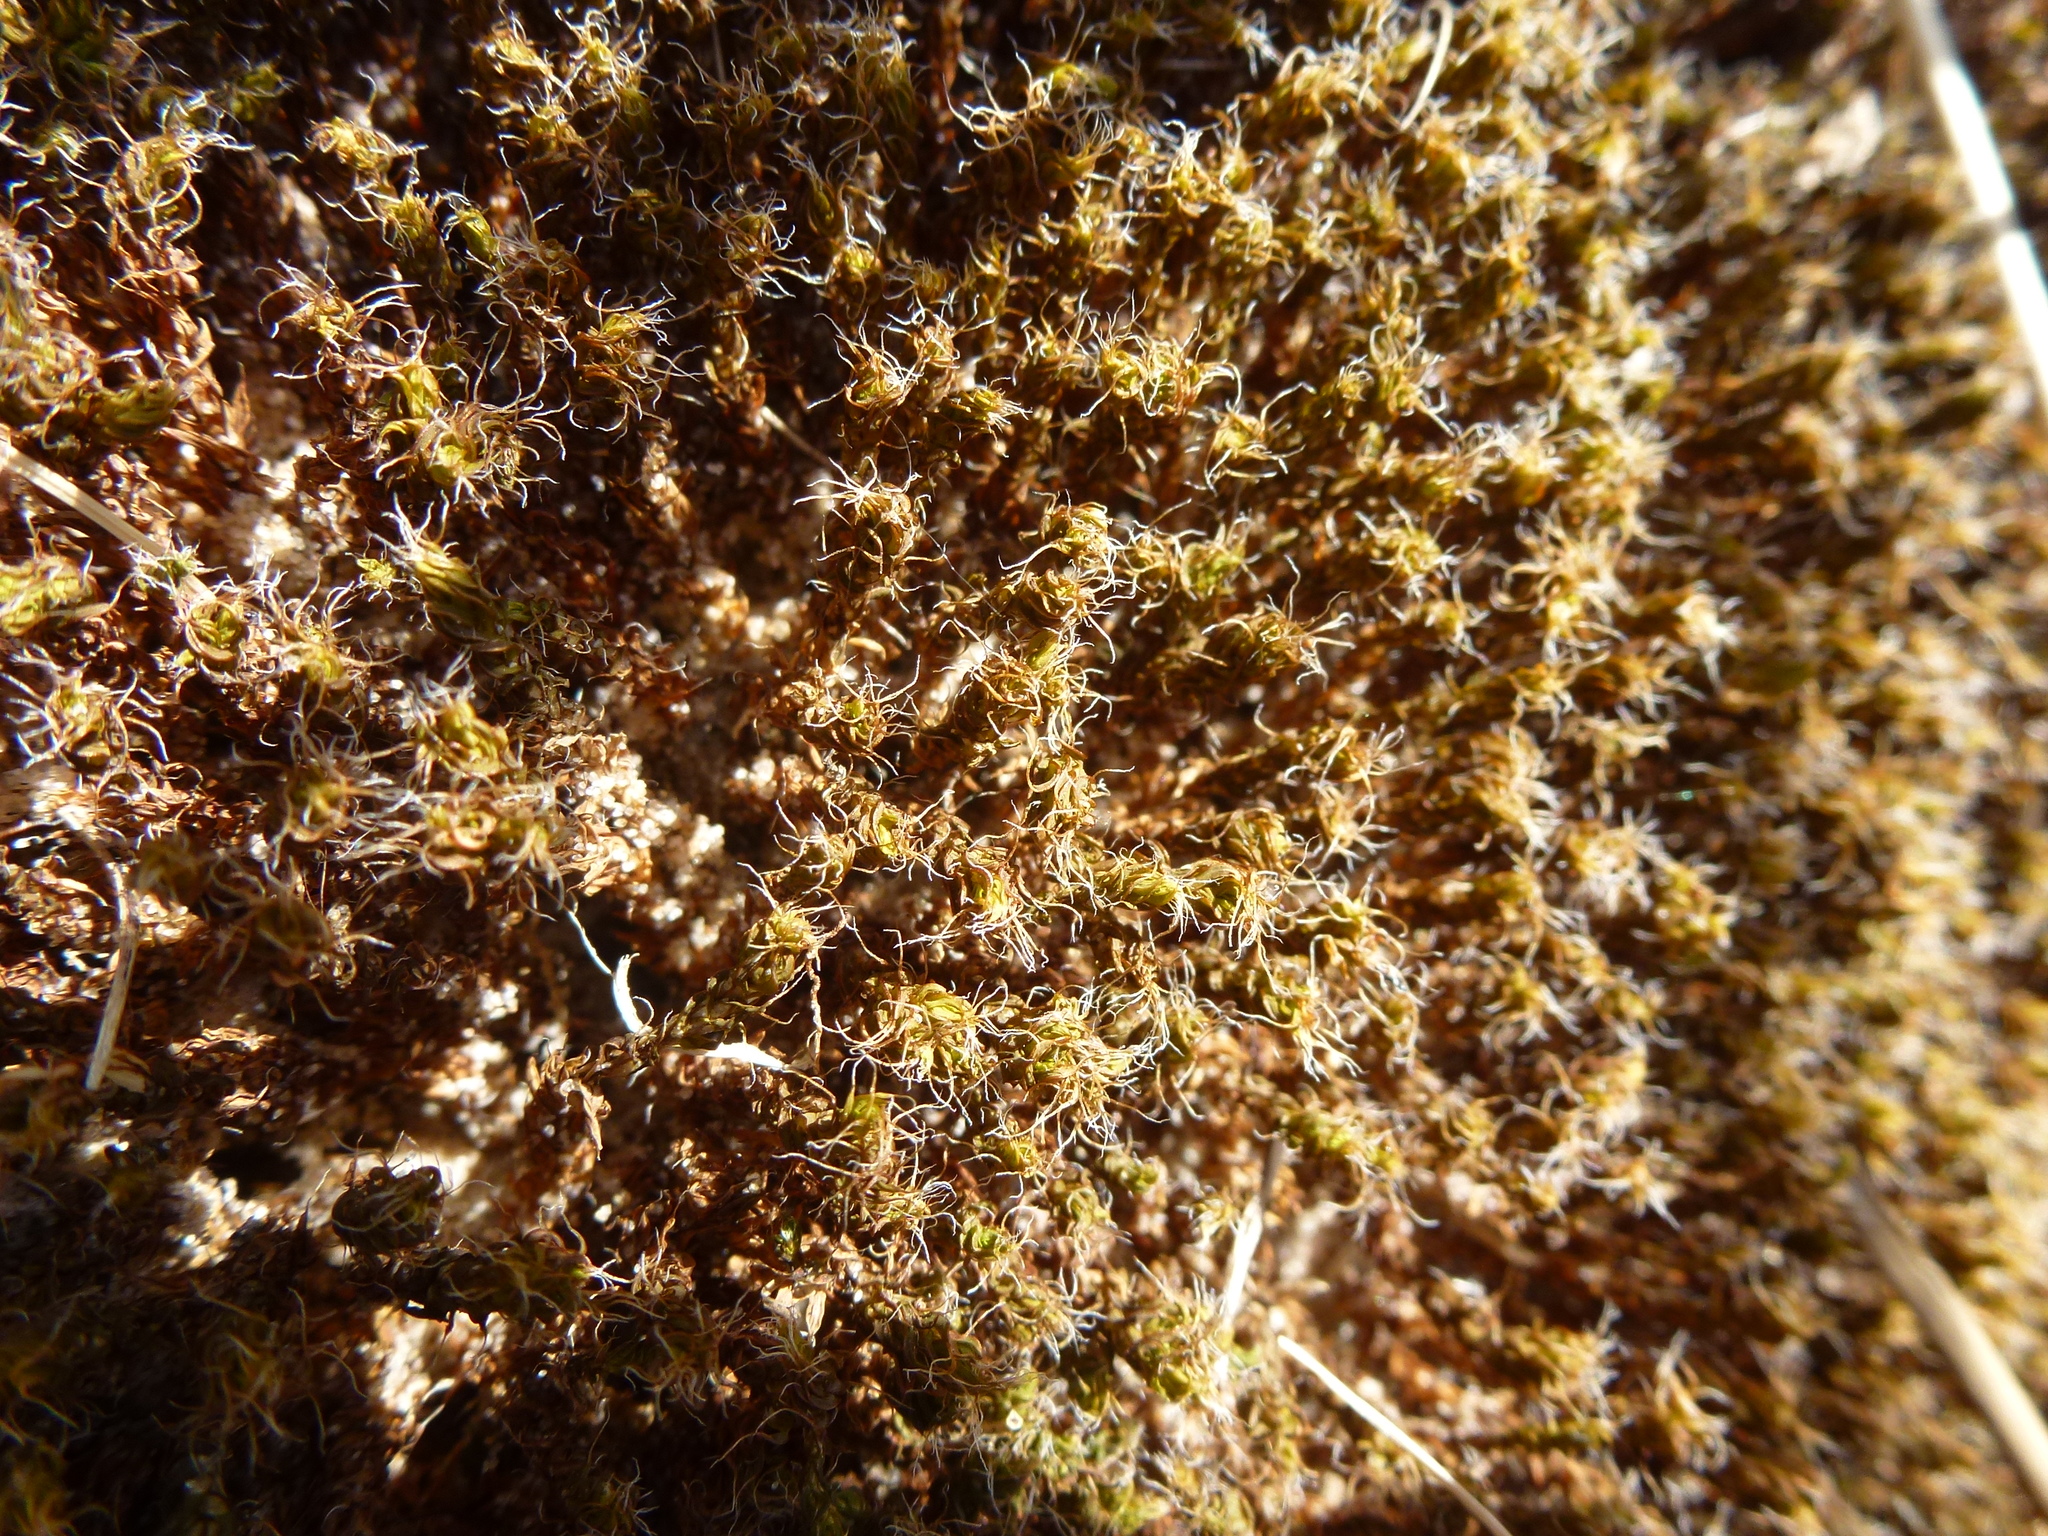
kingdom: Plantae
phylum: Bryophyta
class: Bryopsida
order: Pottiales
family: Pottiaceae
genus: Syntrichia
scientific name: Syntrichia ruralis
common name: Sidewalk screw moss
